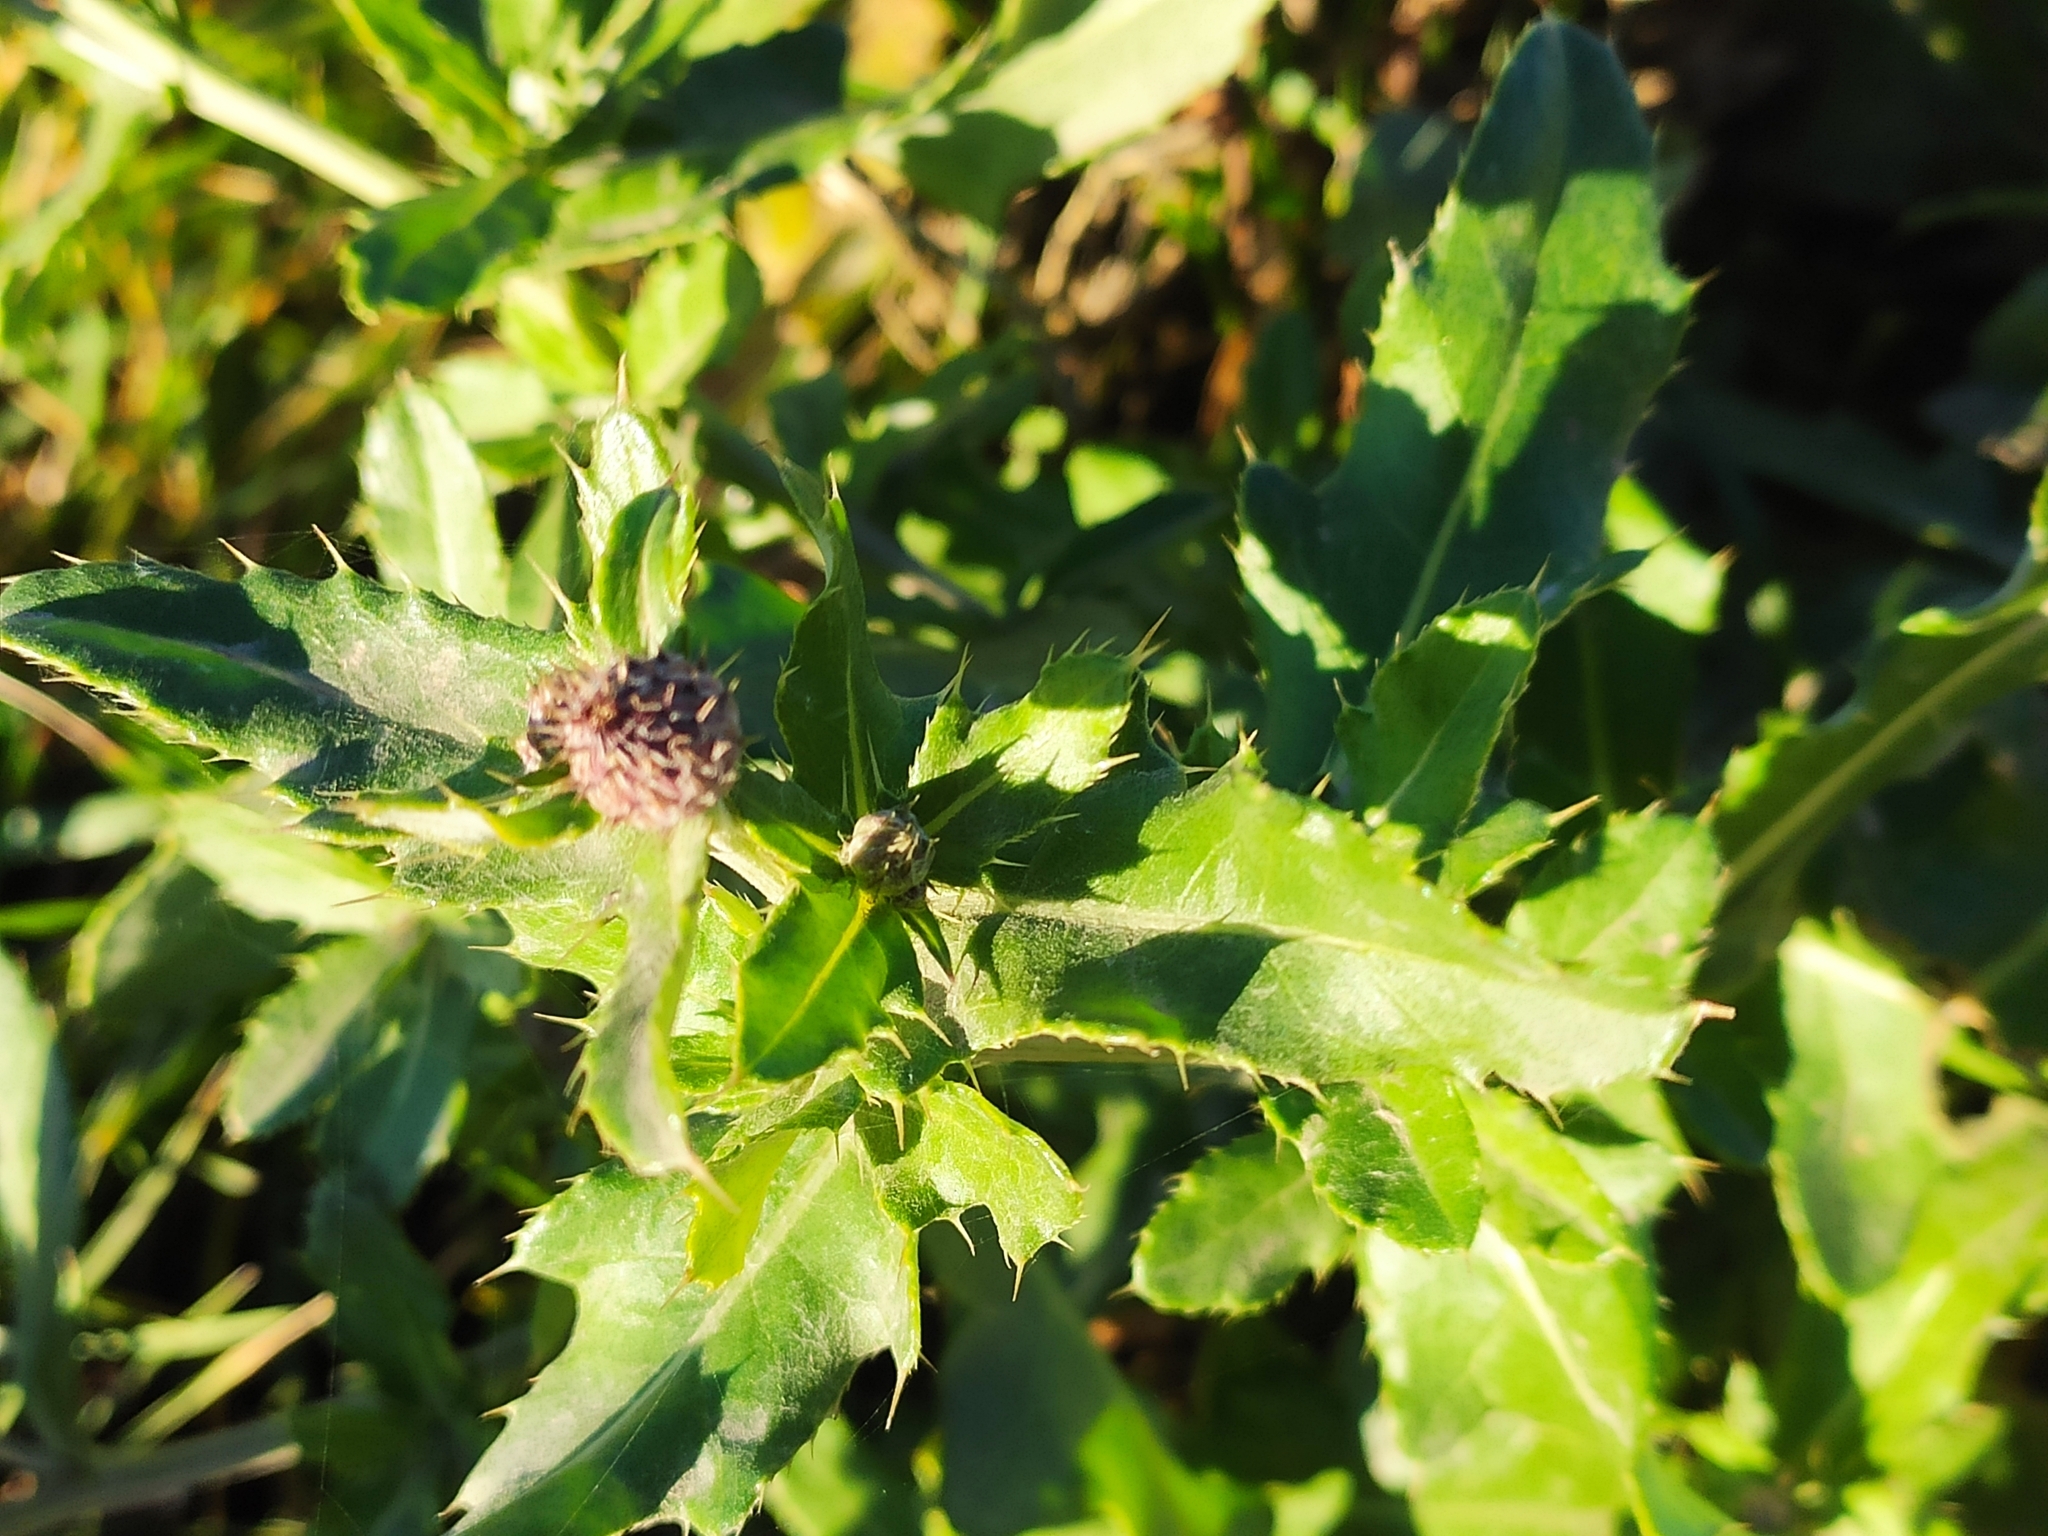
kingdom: Plantae
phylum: Tracheophyta
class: Magnoliopsida
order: Asterales
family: Asteraceae
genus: Cirsium
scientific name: Cirsium arvense
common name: Creeping thistle
